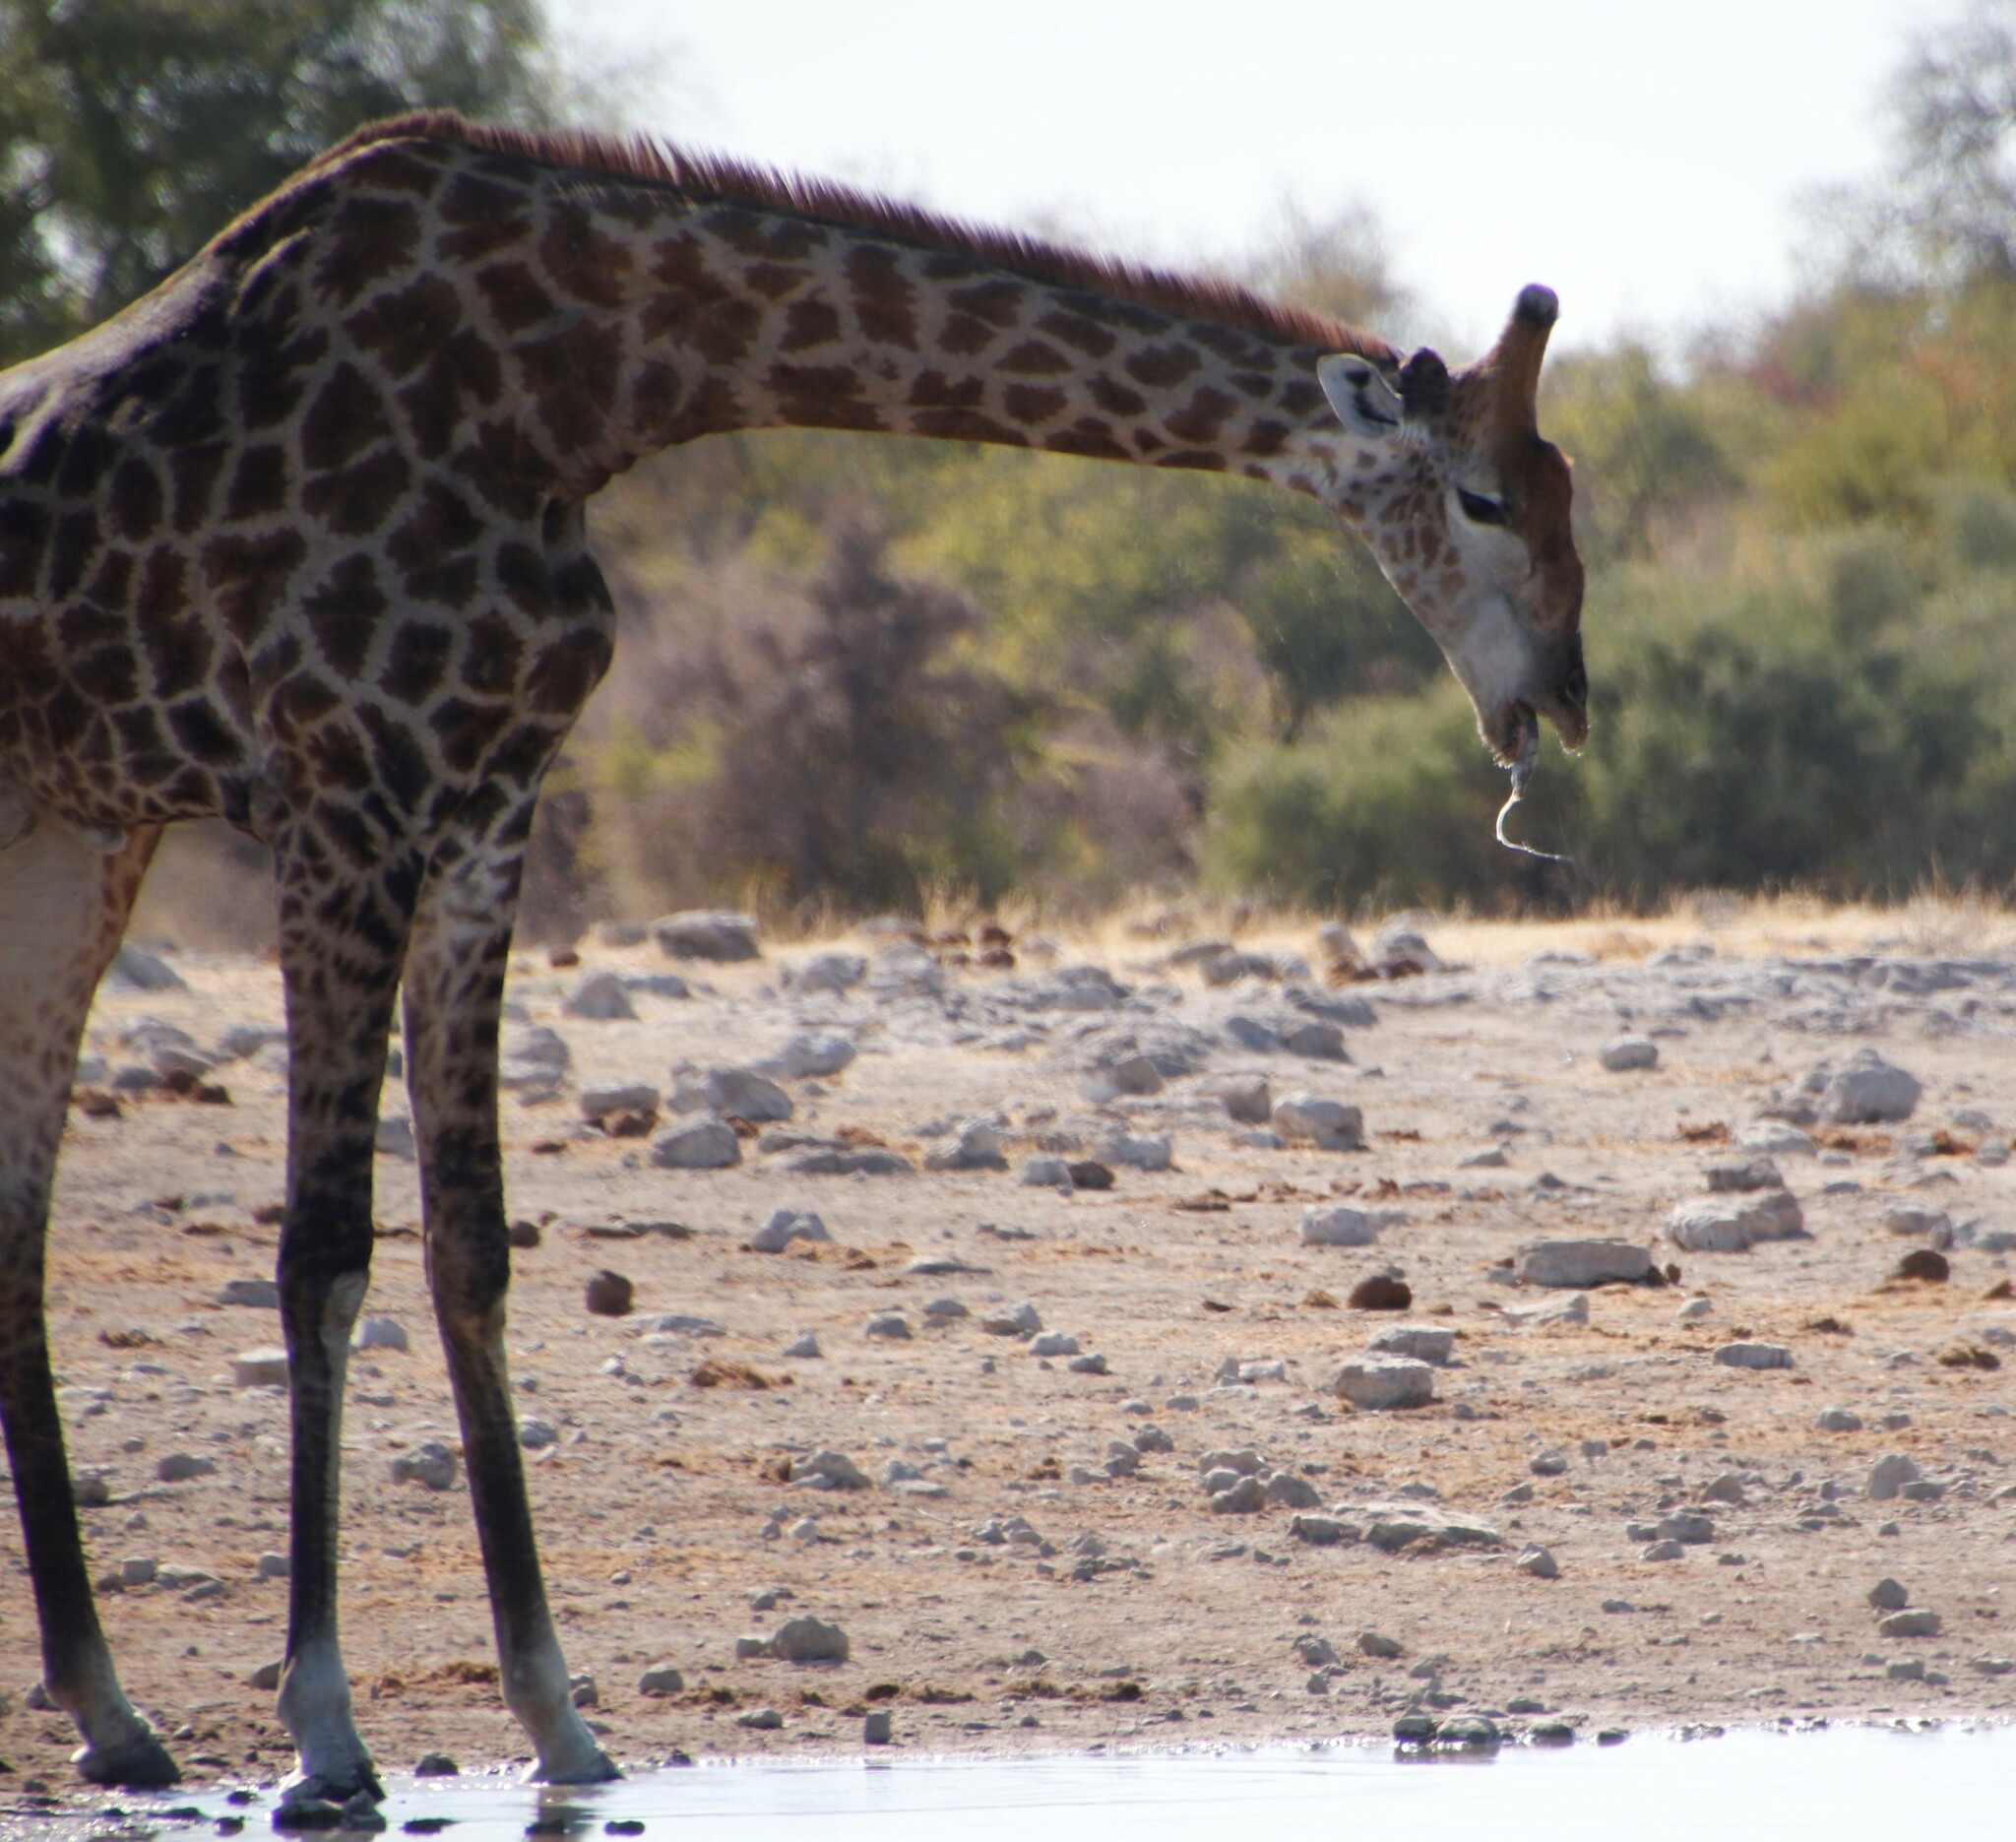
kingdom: Animalia
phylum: Chordata
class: Mammalia
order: Artiodactyla
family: Giraffidae
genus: Giraffa
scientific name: Giraffa giraffa
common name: Southern giraffe
